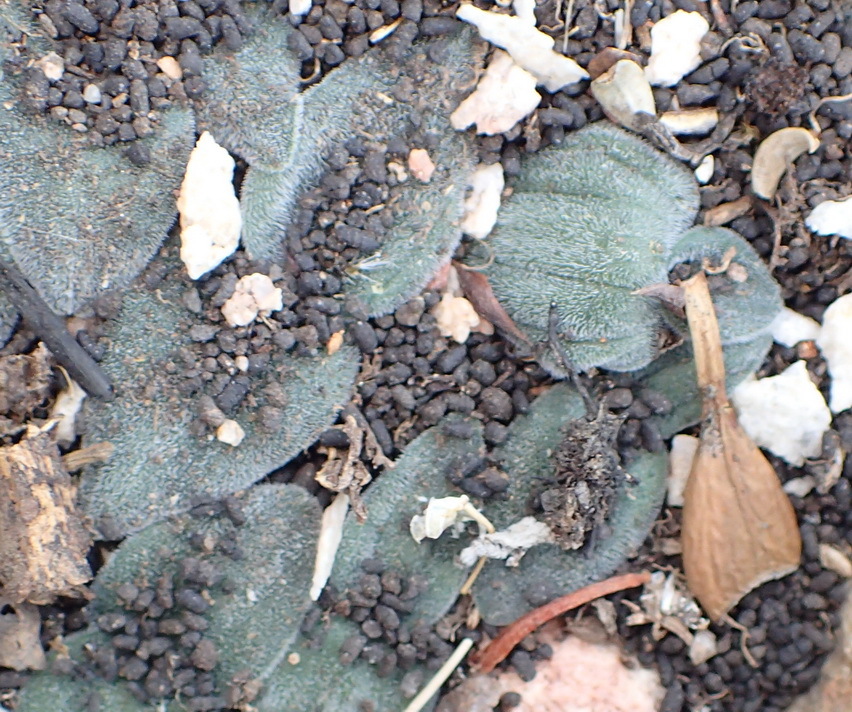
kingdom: Plantae
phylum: Tracheophyta
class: Liliopsida
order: Asparagales
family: Asparagaceae
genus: Drimia
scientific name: Drimia platyphylla
